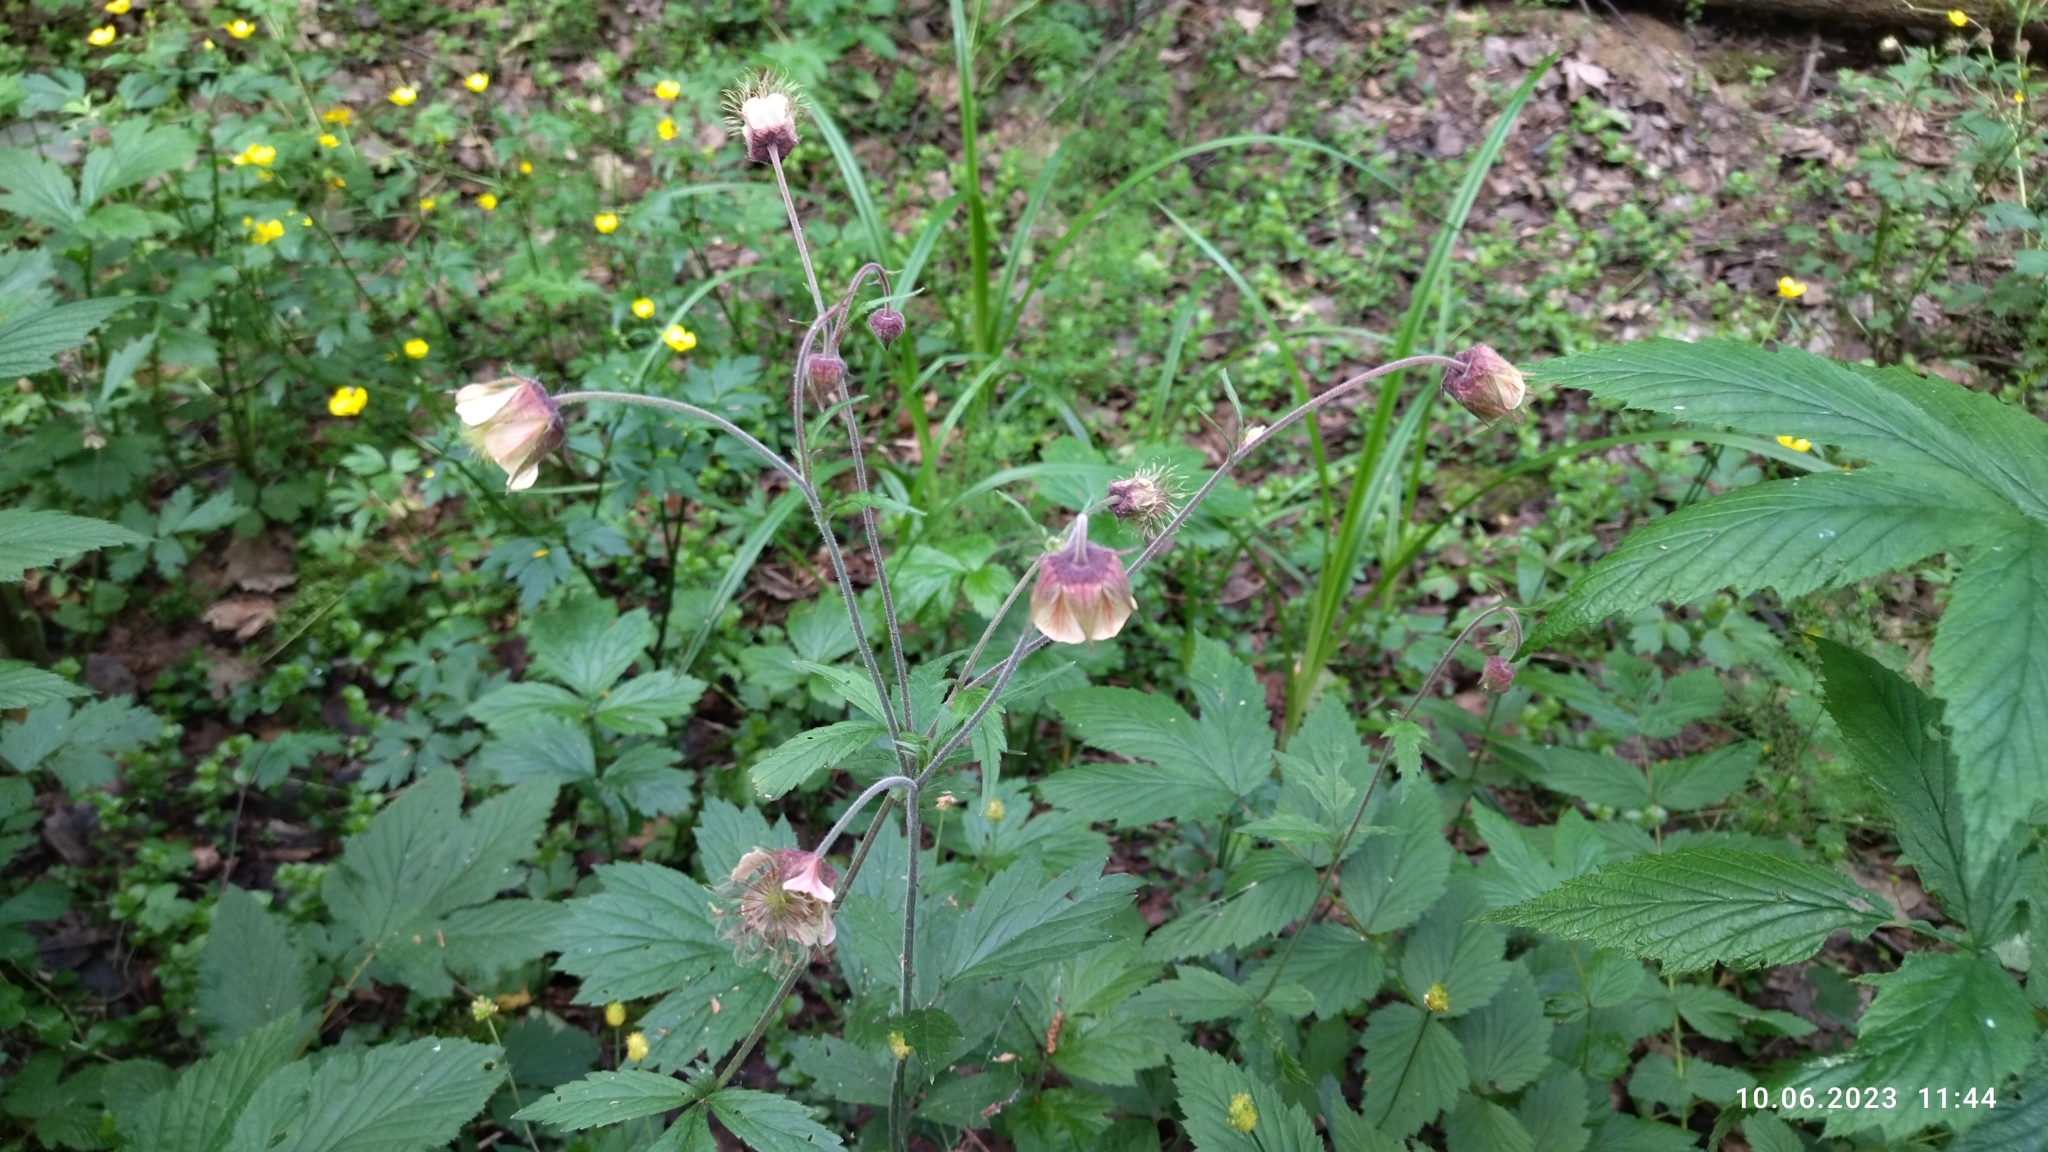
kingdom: Plantae
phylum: Tracheophyta
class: Magnoliopsida
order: Rosales
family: Rosaceae
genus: Geum
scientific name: Geum rivale
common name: Water avens
